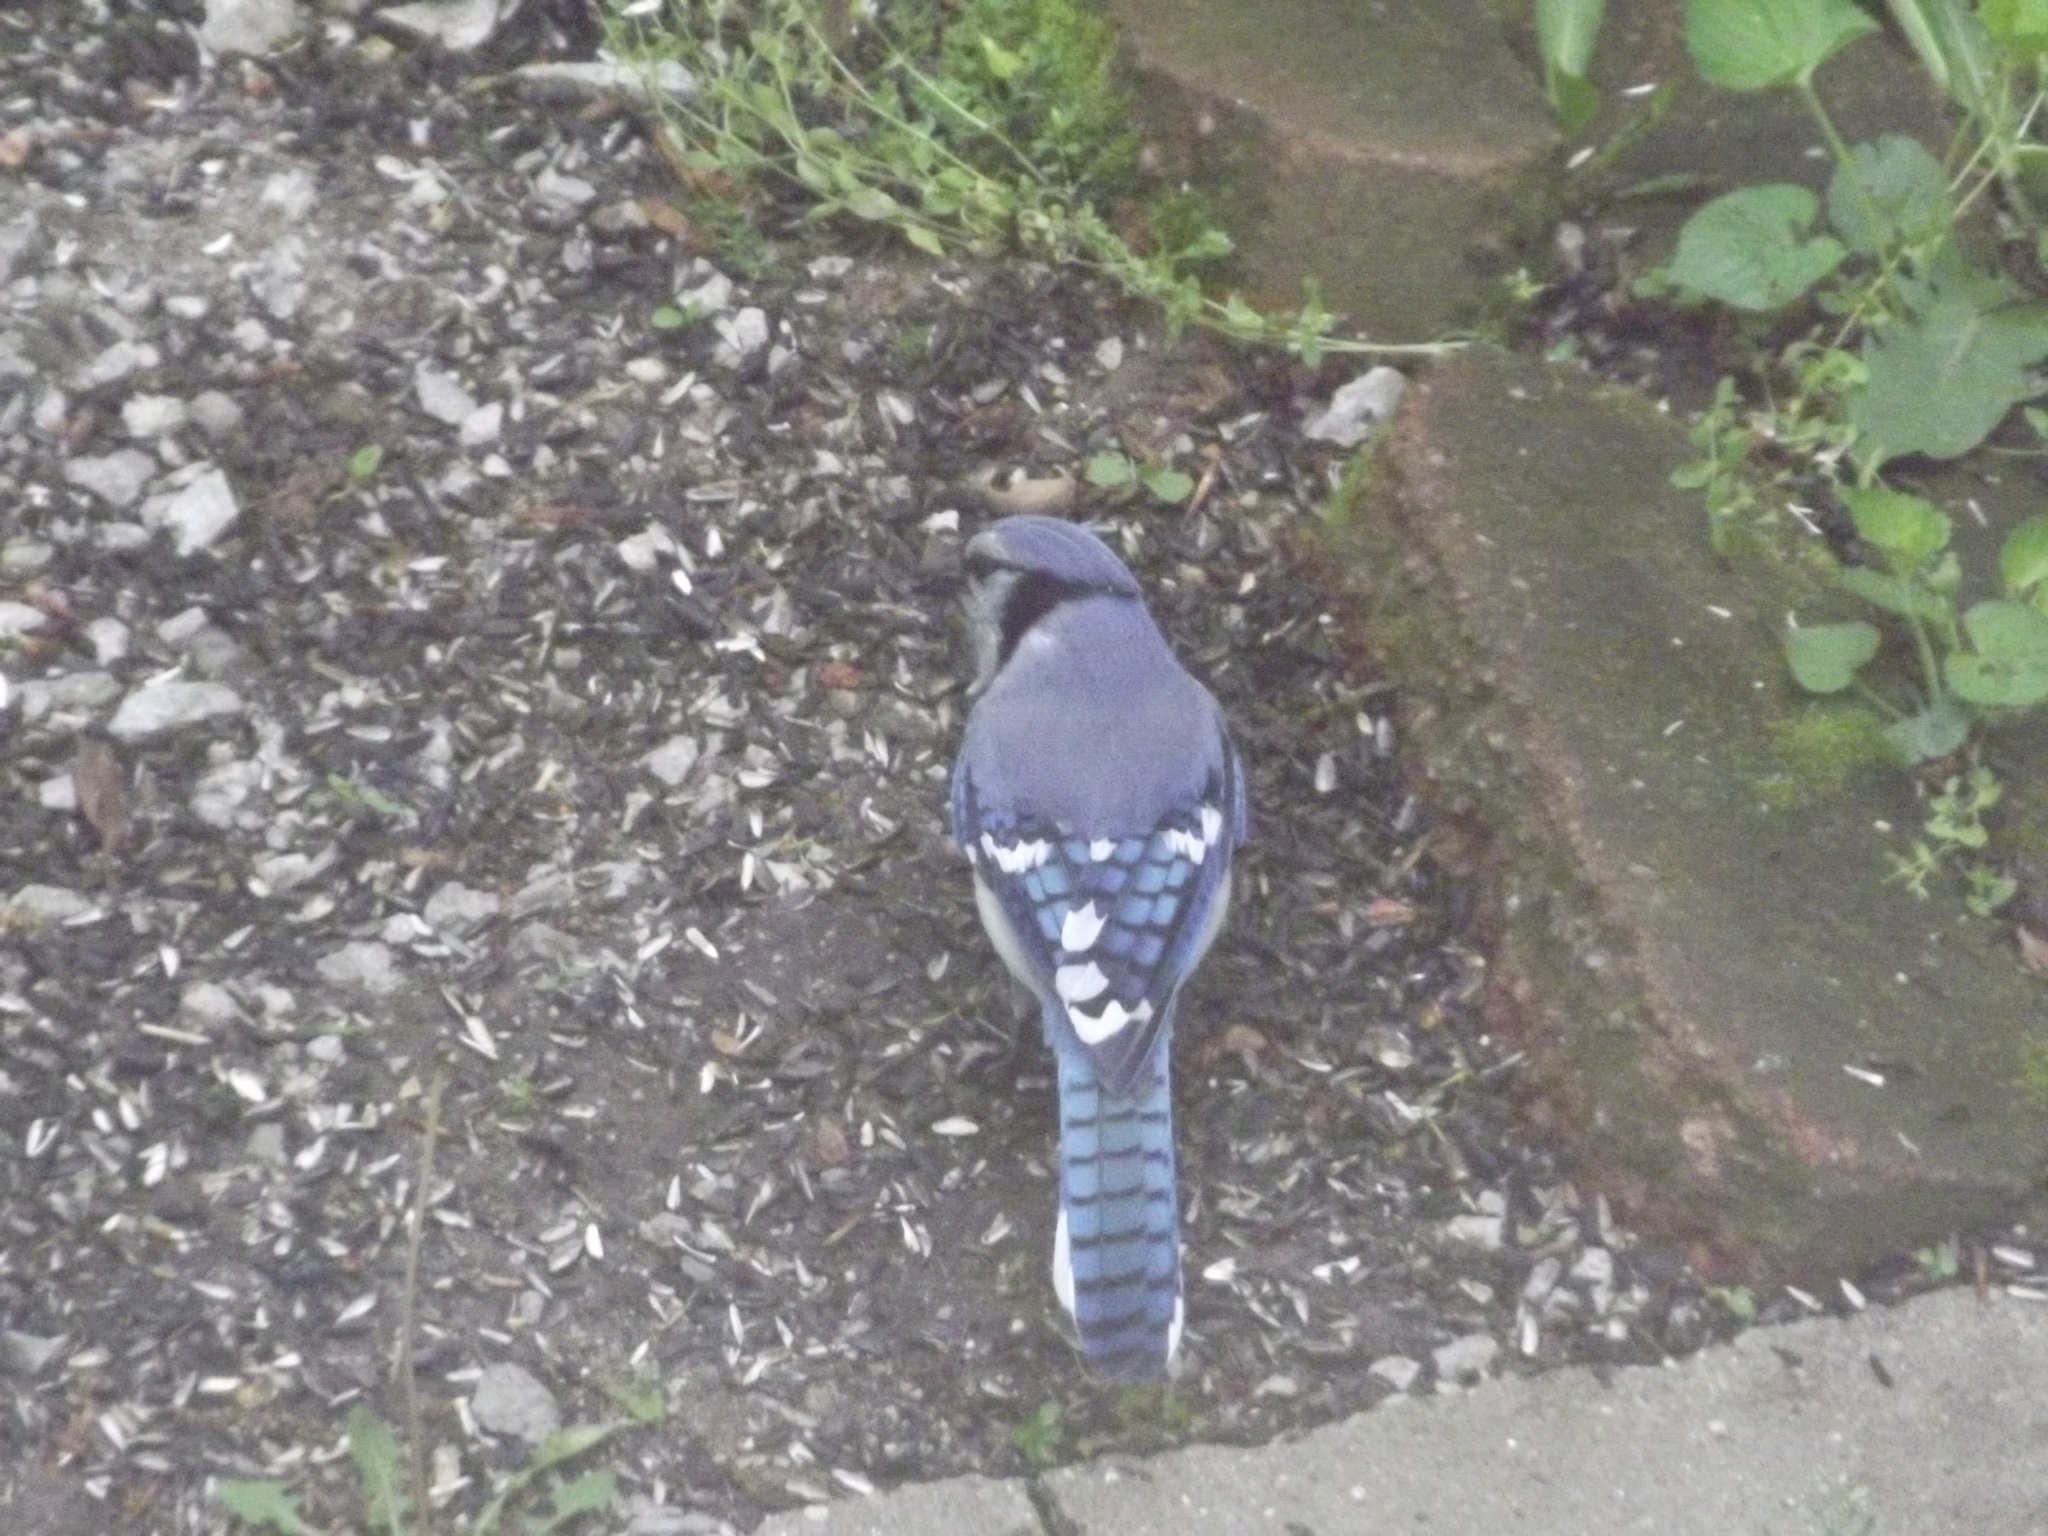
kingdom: Animalia
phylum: Chordata
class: Aves
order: Passeriformes
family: Corvidae
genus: Cyanocitta
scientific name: Cyanocitta cristata
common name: Blue jay
